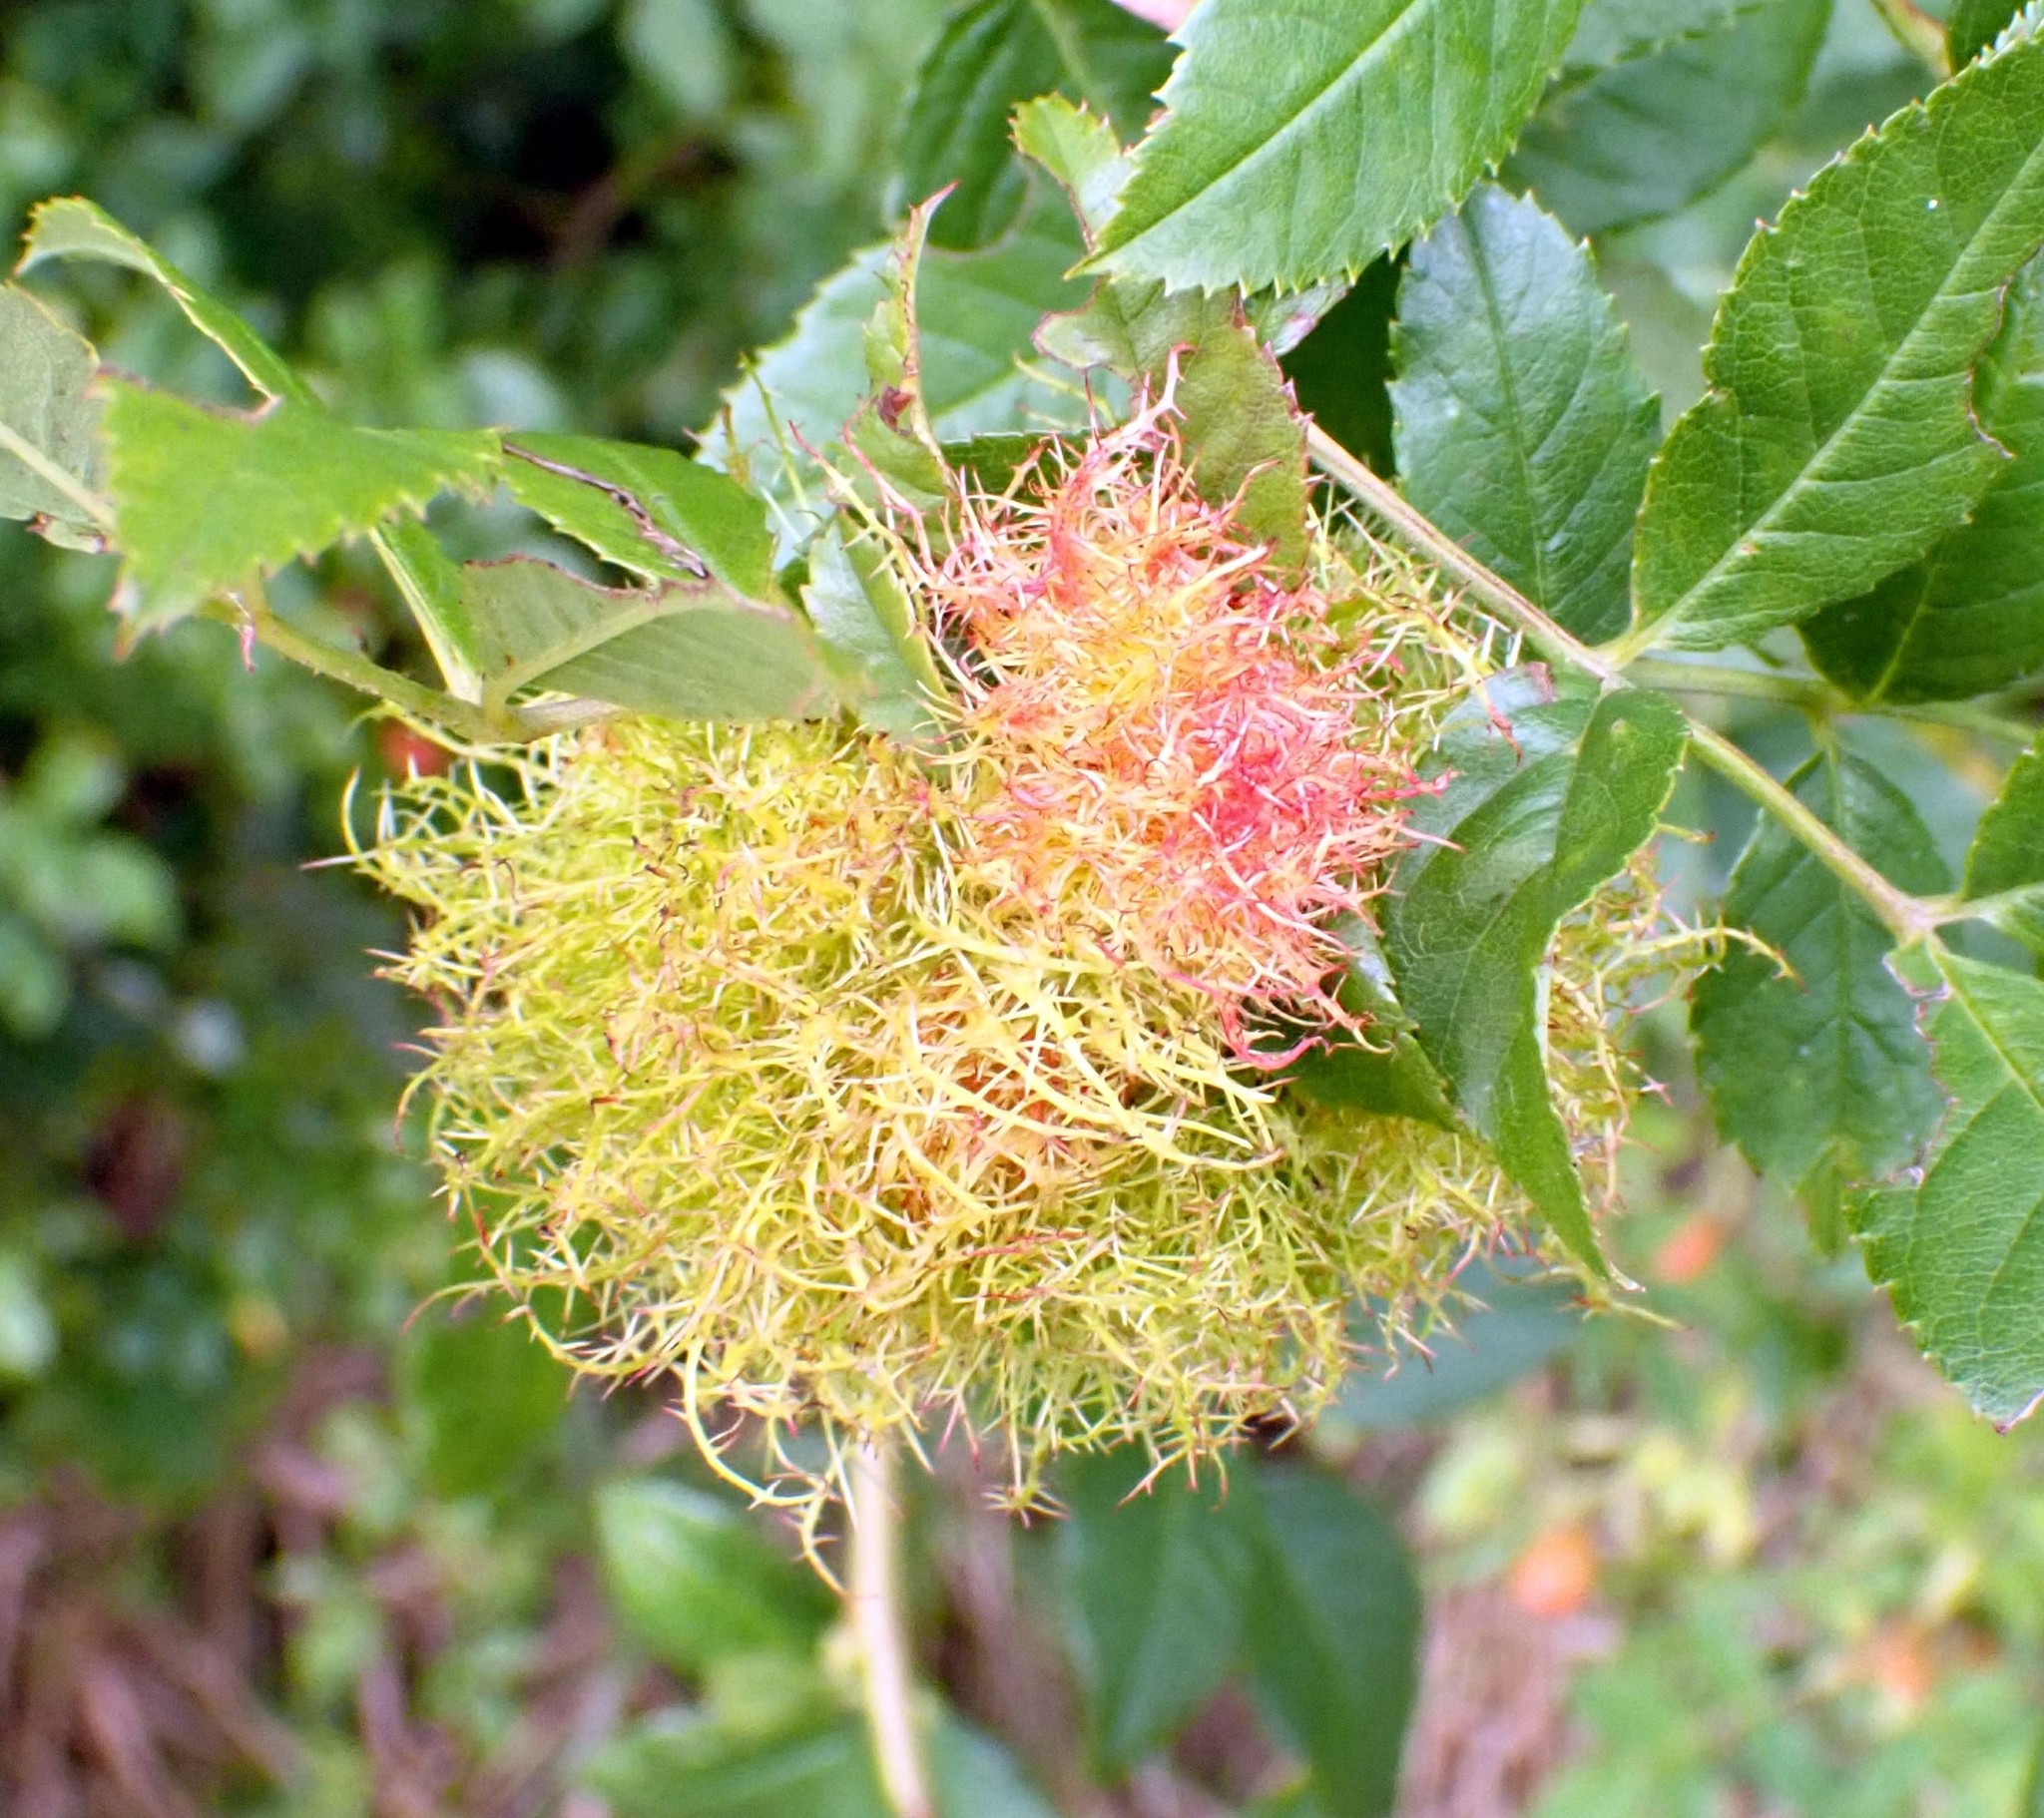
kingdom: Animalia
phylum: Arthropoda
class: Insecta
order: Hymenoptera
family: Cynipidae
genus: Diplolepis
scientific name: Diplolepis rosae
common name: Bedeguar gall
